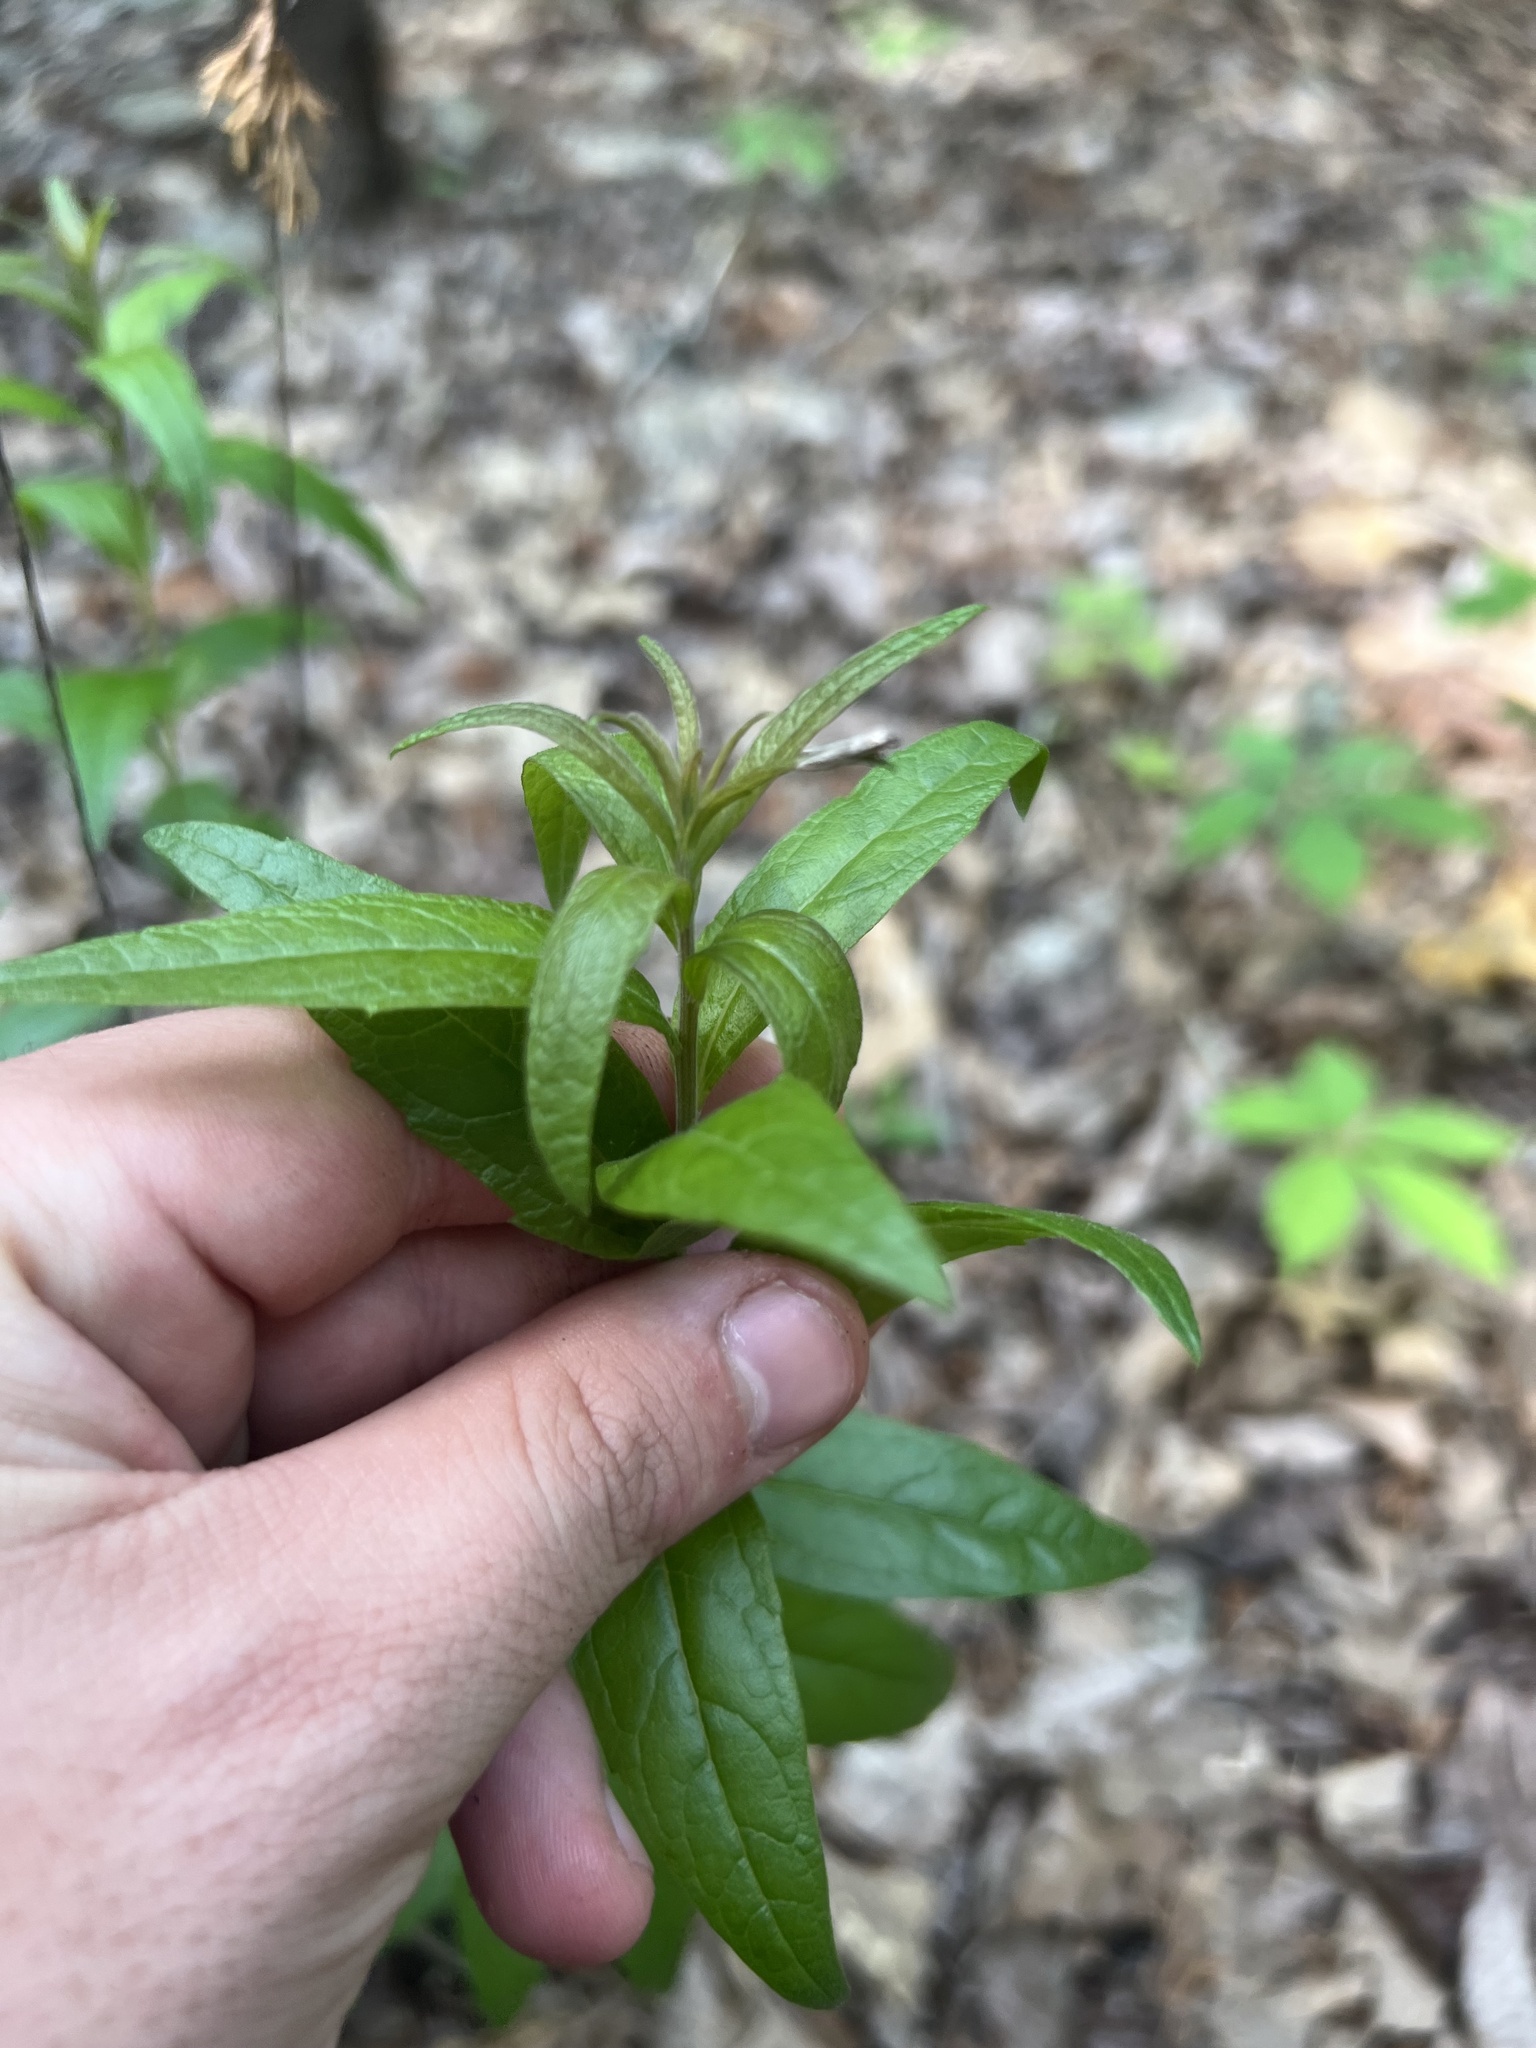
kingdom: Plantae
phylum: Tracheophyta
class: Magnoliopsida
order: Asterales
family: Asteraceae
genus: Brickellia
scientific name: Brickellia eupatorioides
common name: False boneset
